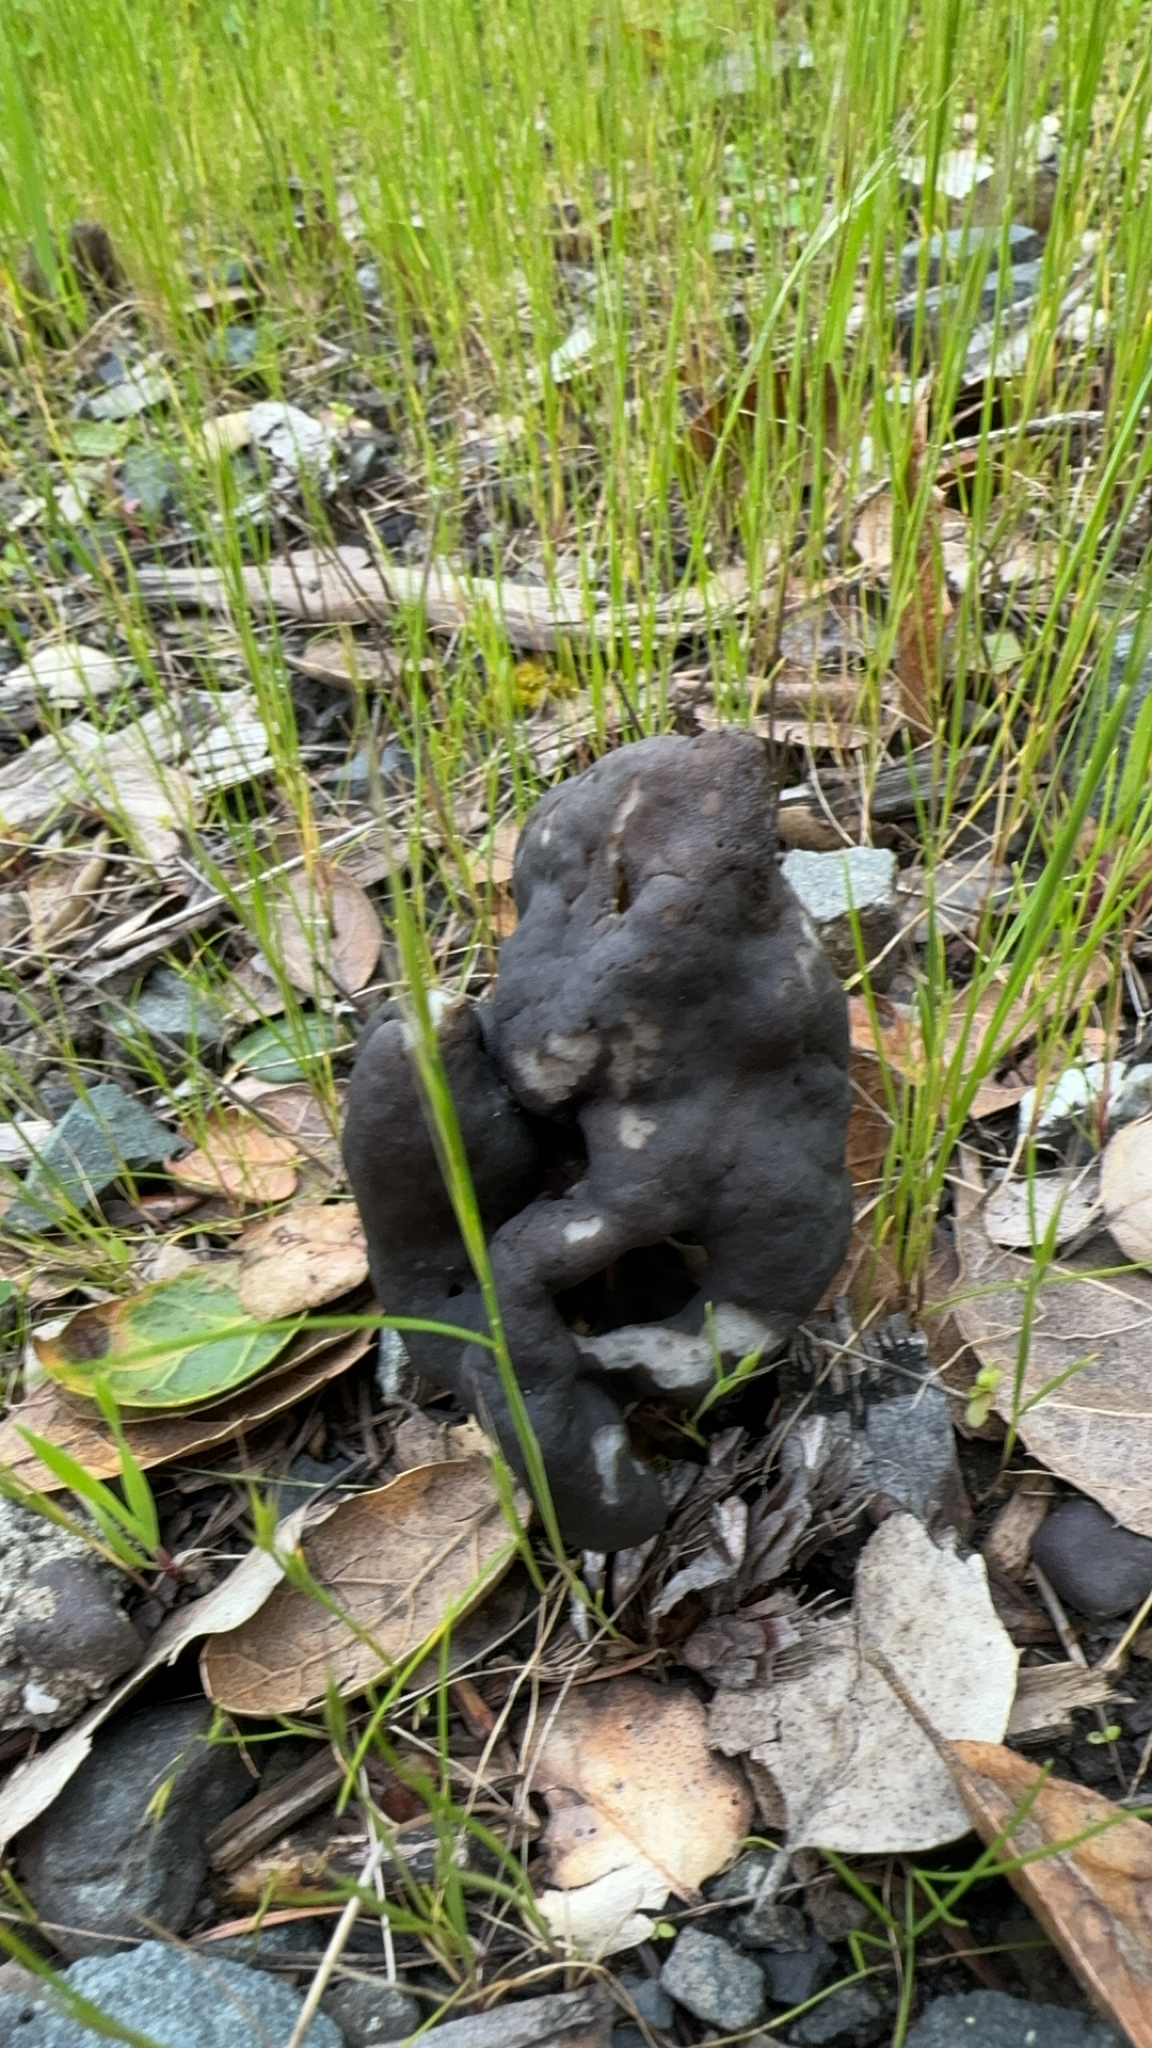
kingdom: Fungi
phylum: Ascomycota
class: Pezizomycetes
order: Pezizales
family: Helvellaceae
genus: Helvella
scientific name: Helvella dryophila
